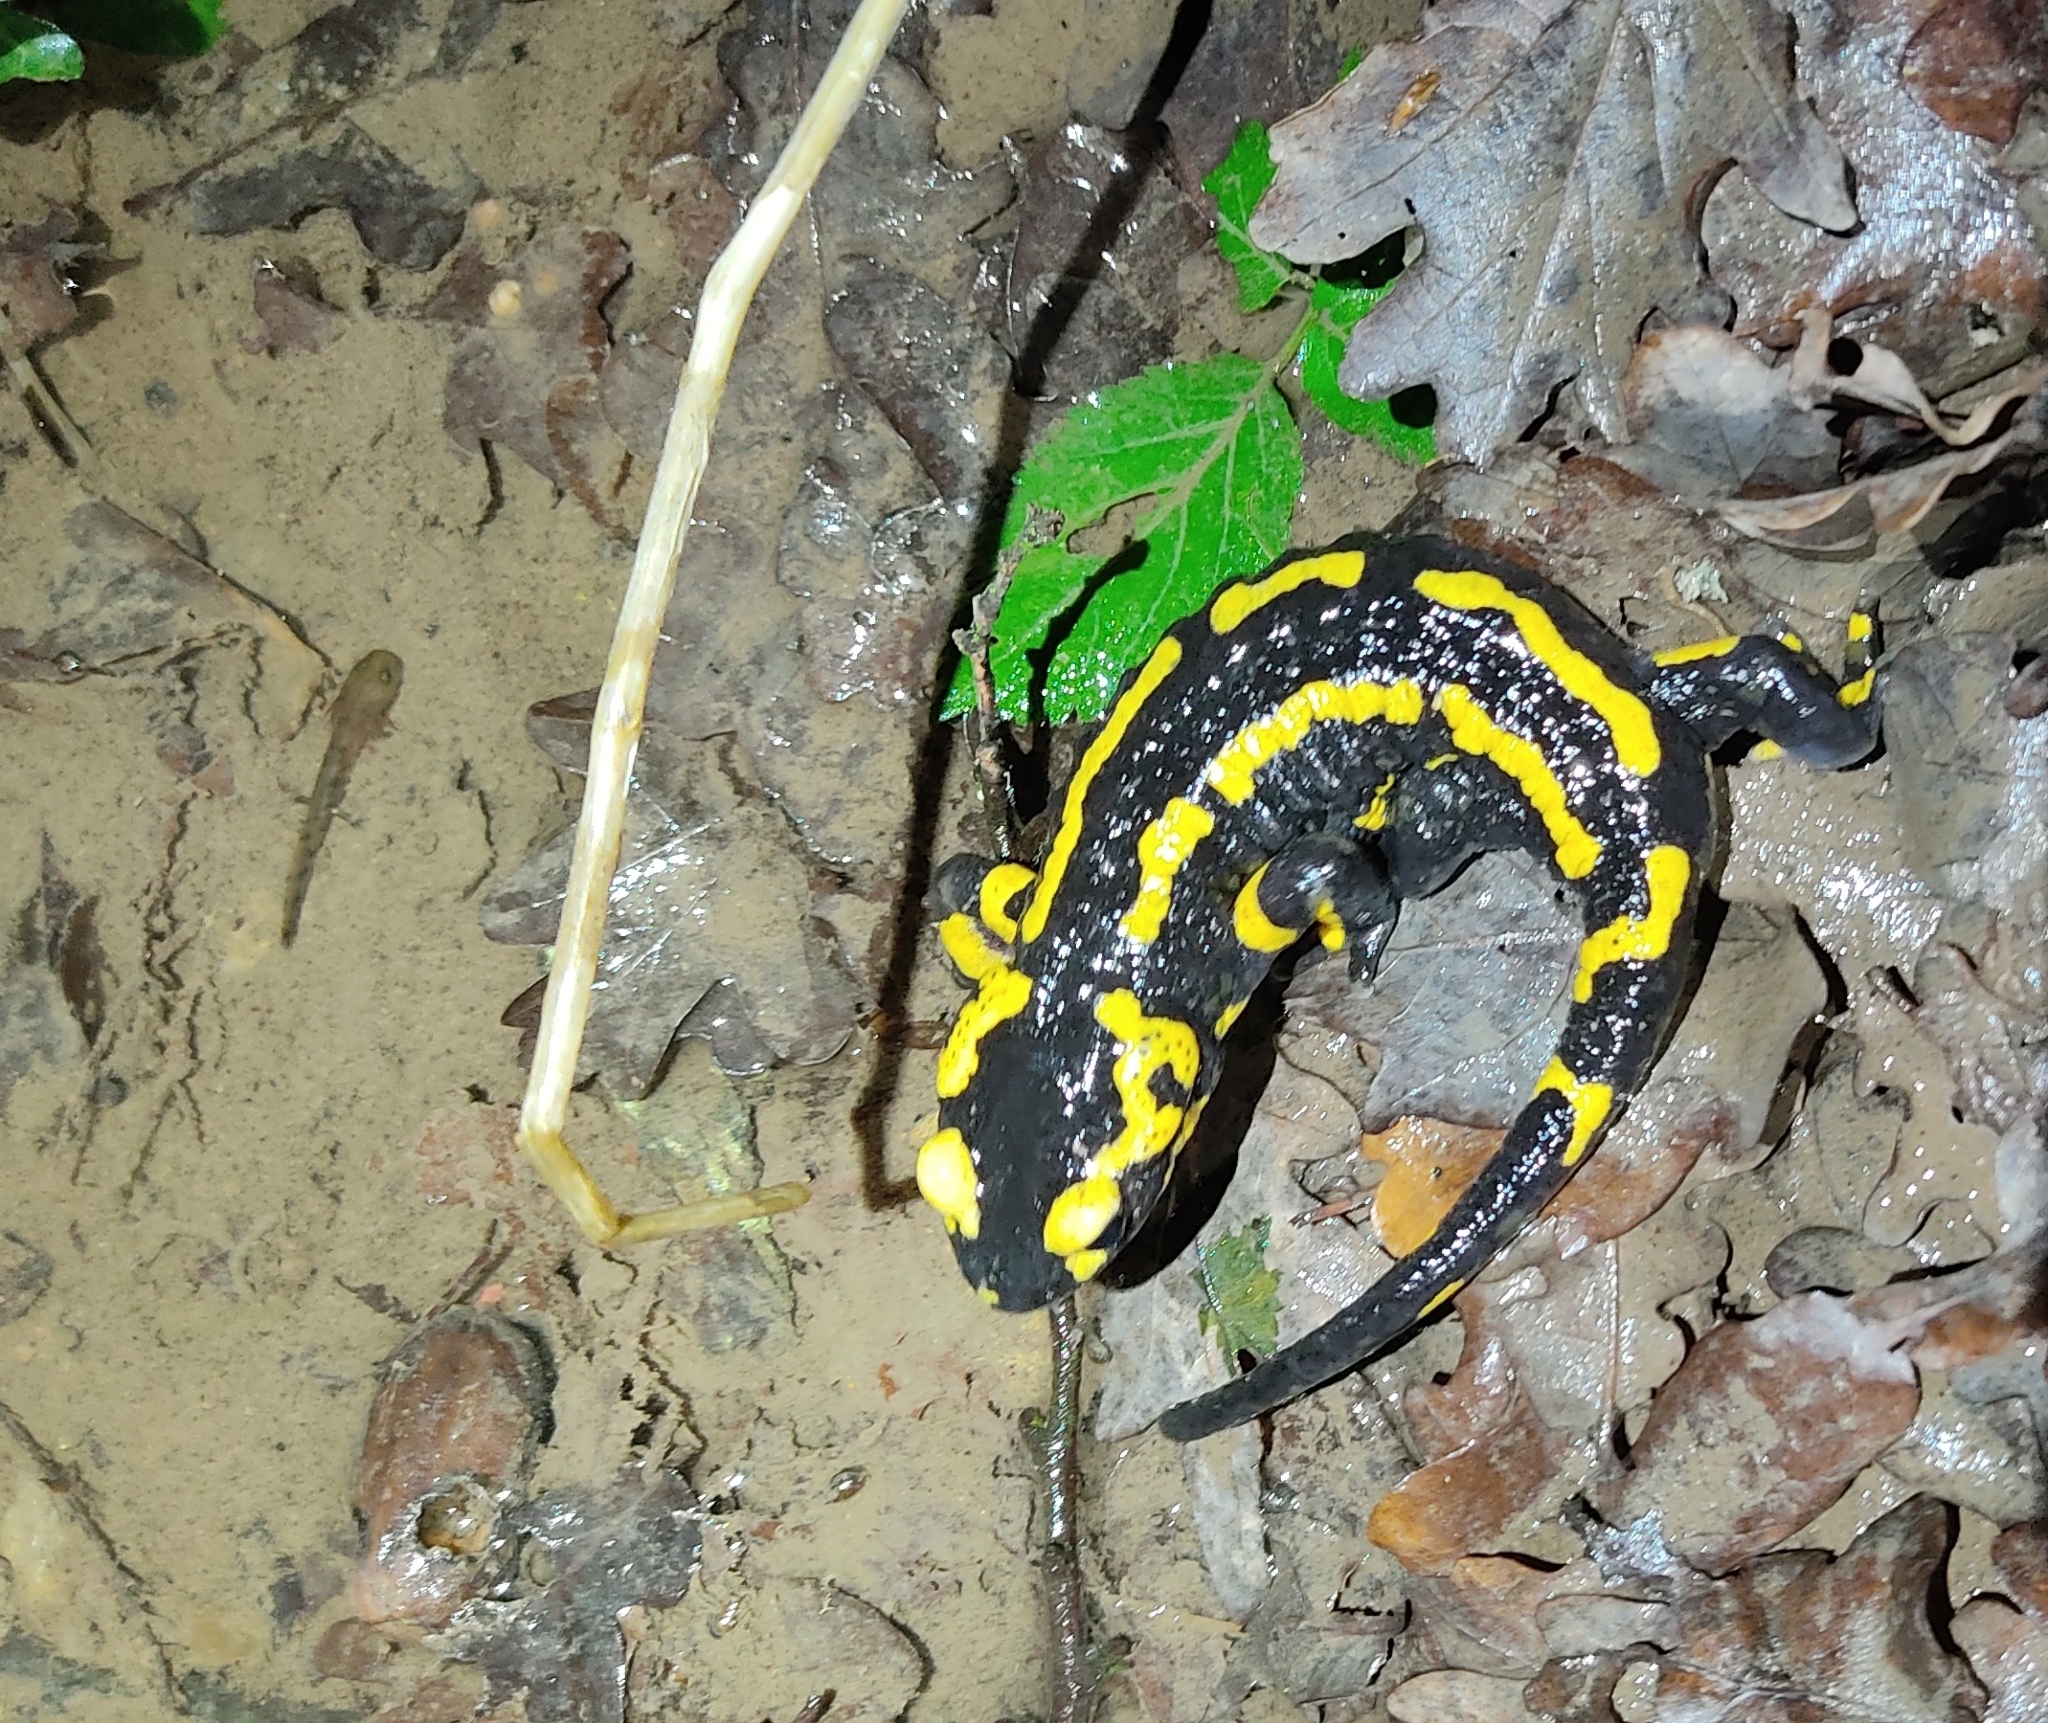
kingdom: Animalia
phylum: Chordata
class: Amphibia
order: Caudata
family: Salamandridae
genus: Salamandra
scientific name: Salamandra salamandra
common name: Fire salamander
